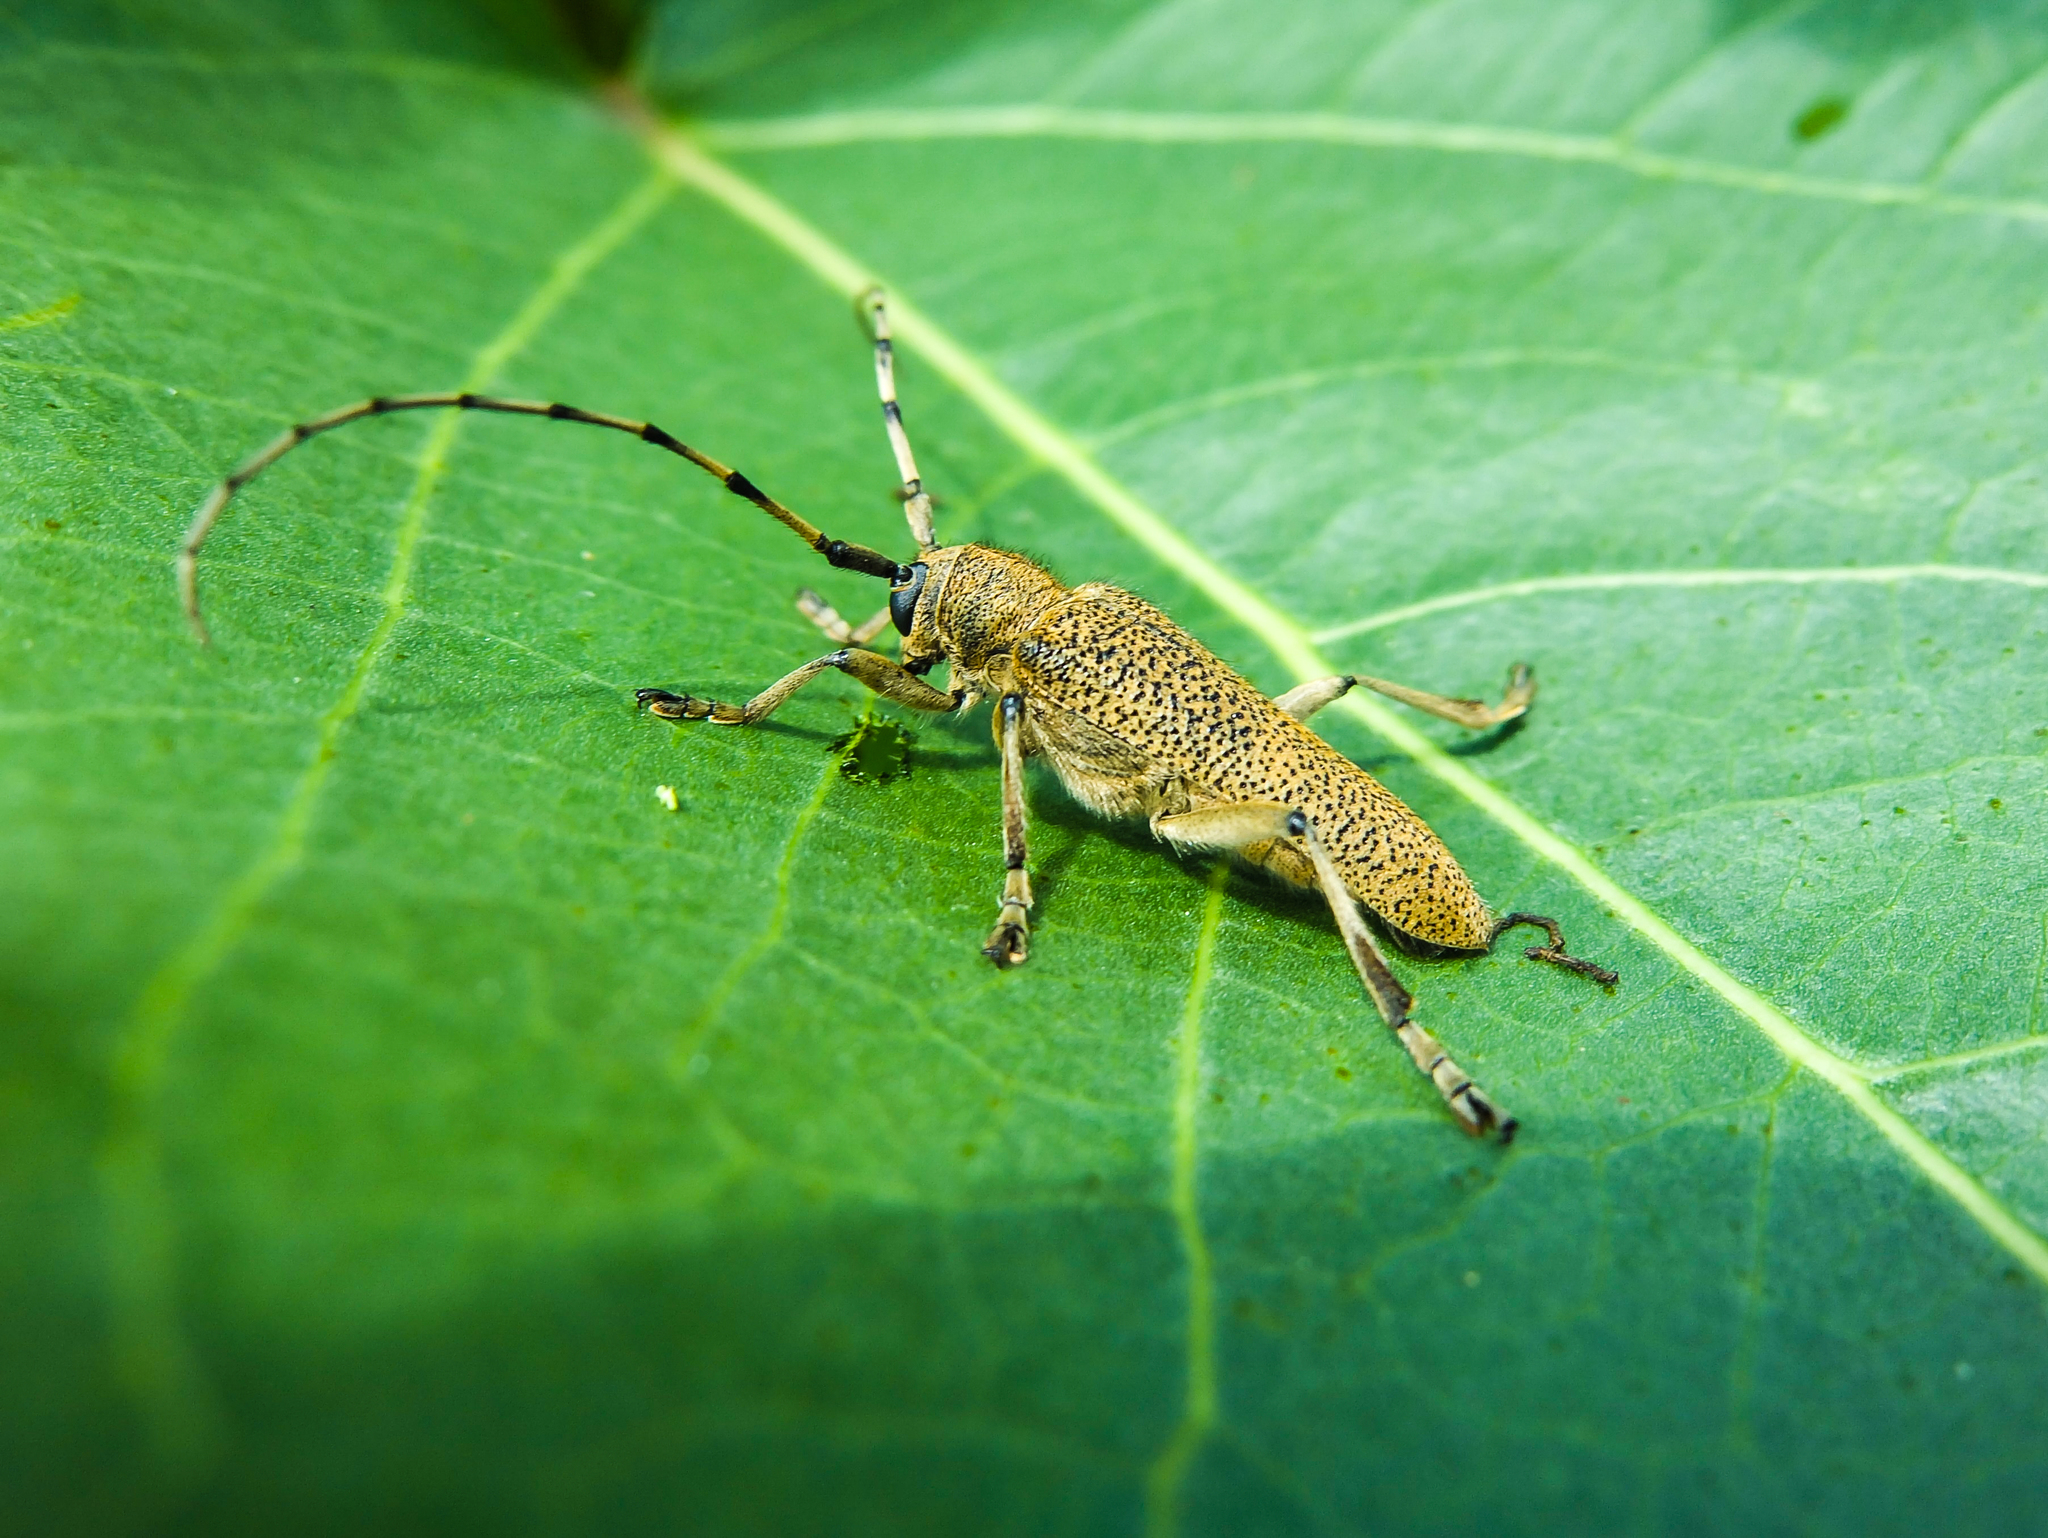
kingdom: Animalia
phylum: Arthropoda
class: Insecta
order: Coleoptera
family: Cerambycidae
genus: Saperda
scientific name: Saperda carcharias
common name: Poplar borer
